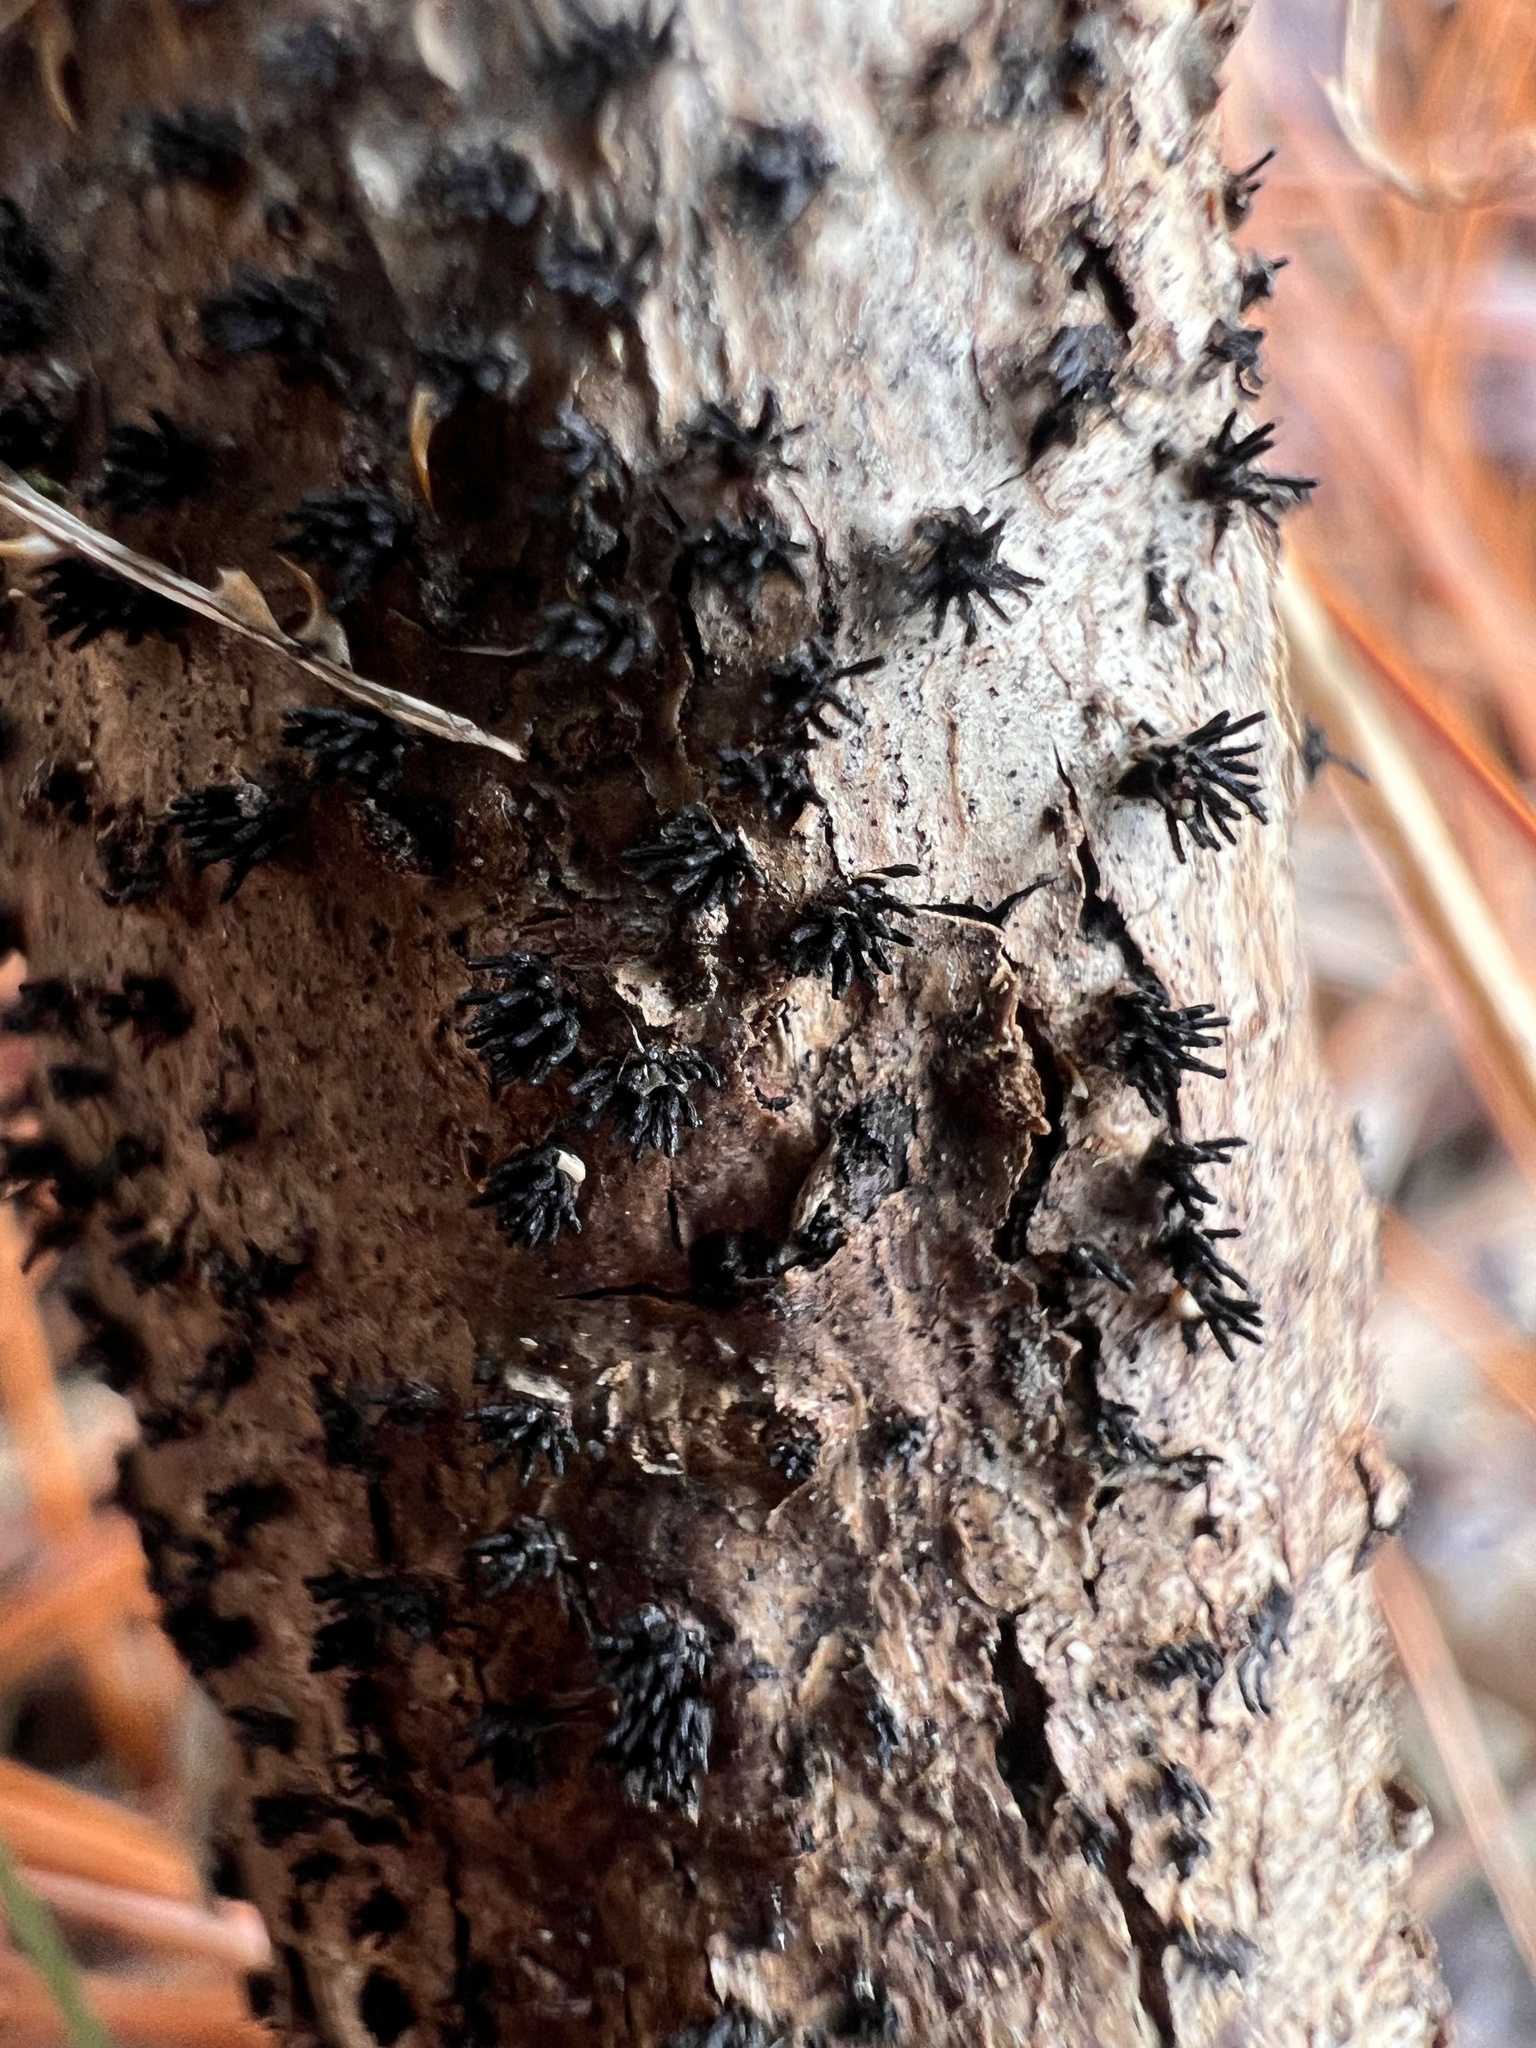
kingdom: Fungi
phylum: Ascomycota
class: Sordariomycetes
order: Xylariales
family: Diatrypaceae
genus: Peroneutypa
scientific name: Peroneutypa scoparia
